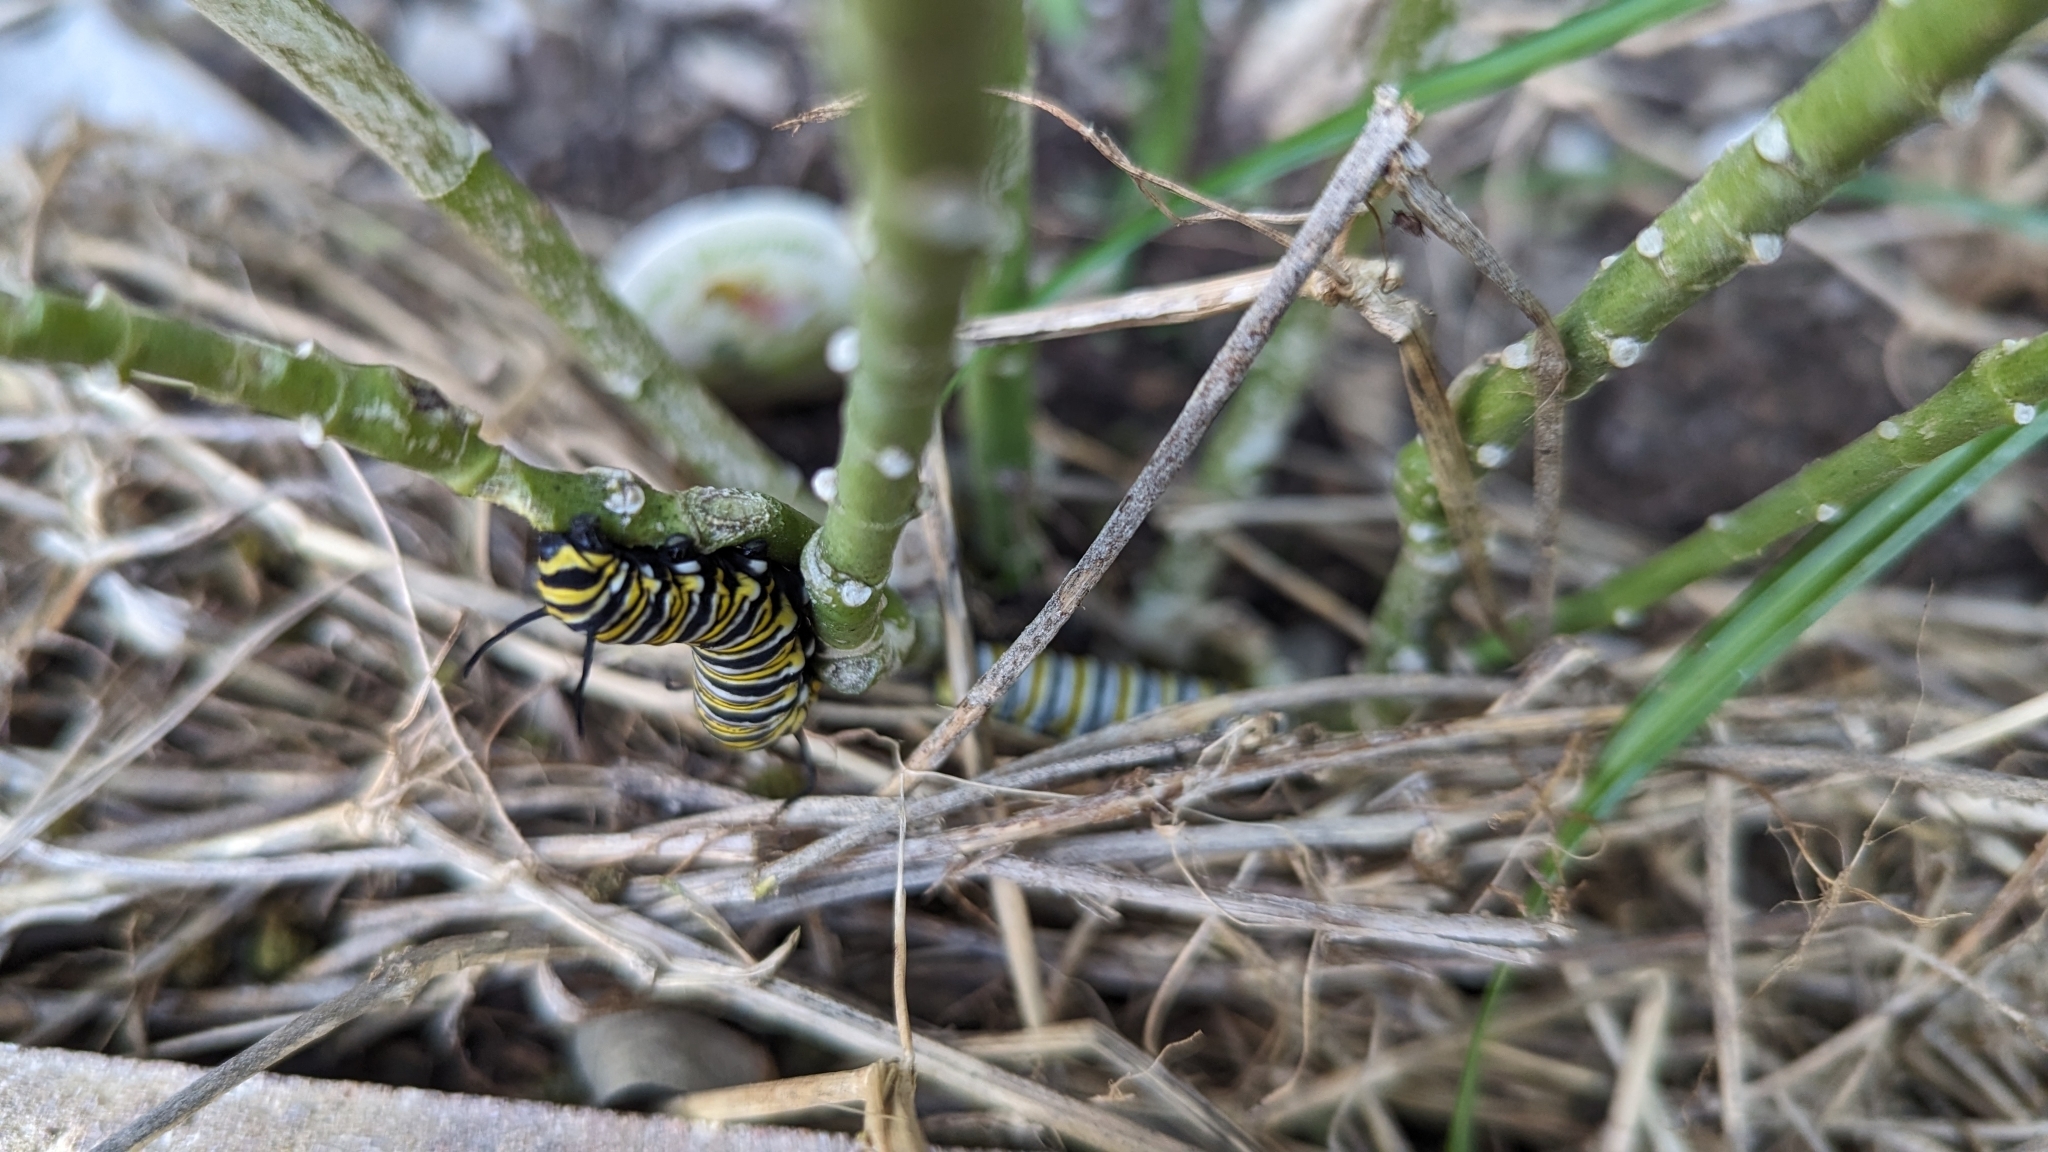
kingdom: Animalia
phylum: Arthropoda
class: Insecta
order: Lepidoptera
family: Nymphalidae
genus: Danaus
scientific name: Danaus plexippus
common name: Monarch
